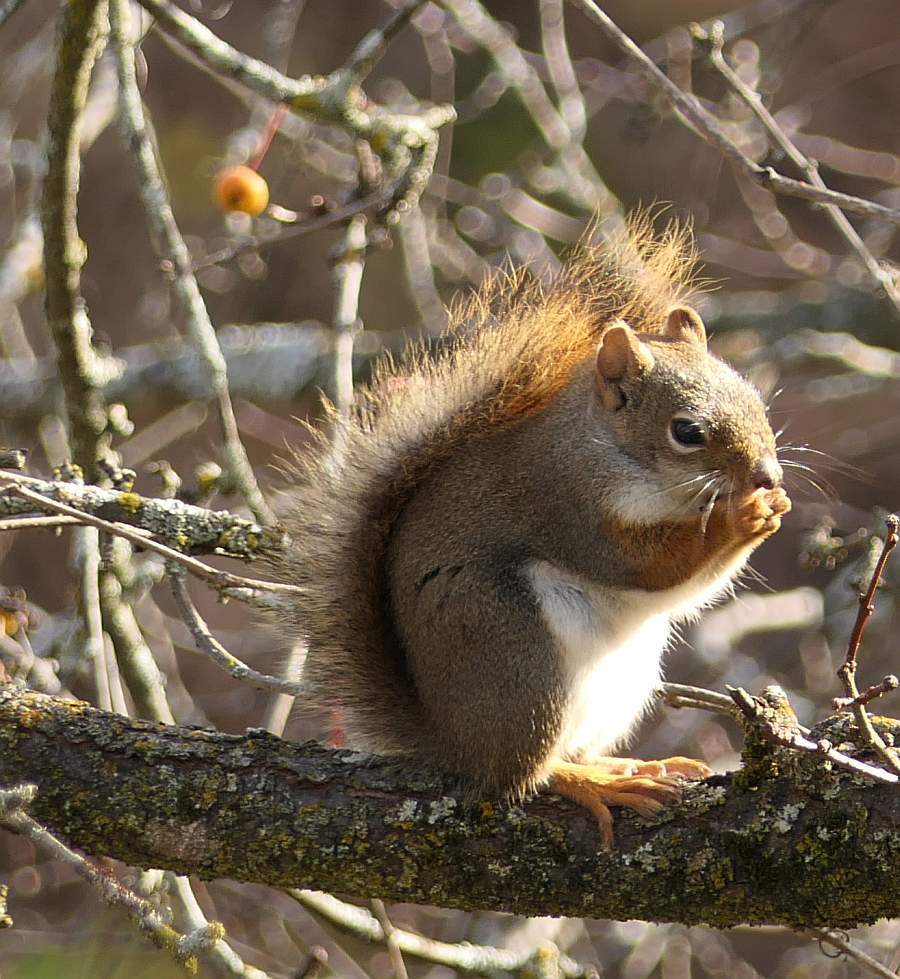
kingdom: Animalia
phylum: Chordata
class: Mammalia
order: Rodentia
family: Sciuridae
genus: Tamiasciurus
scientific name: Tamiasciurus hudsonicus
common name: Red squirrel
